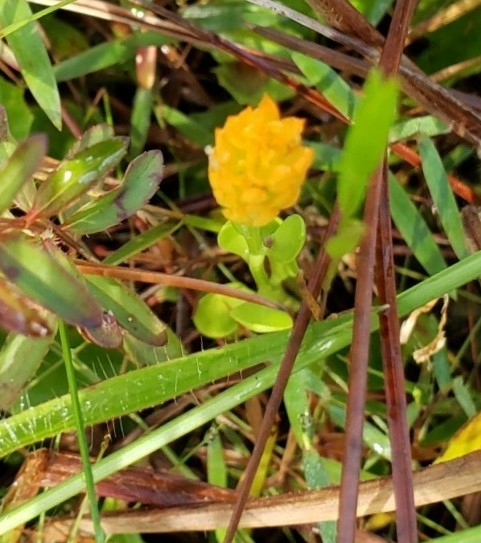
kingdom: Plantae
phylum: Tracheophyta
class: Magnoliopsida
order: Fabales
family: Polygalaceae
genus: Polygala
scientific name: Polygala lutea
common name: Orange milkwort
